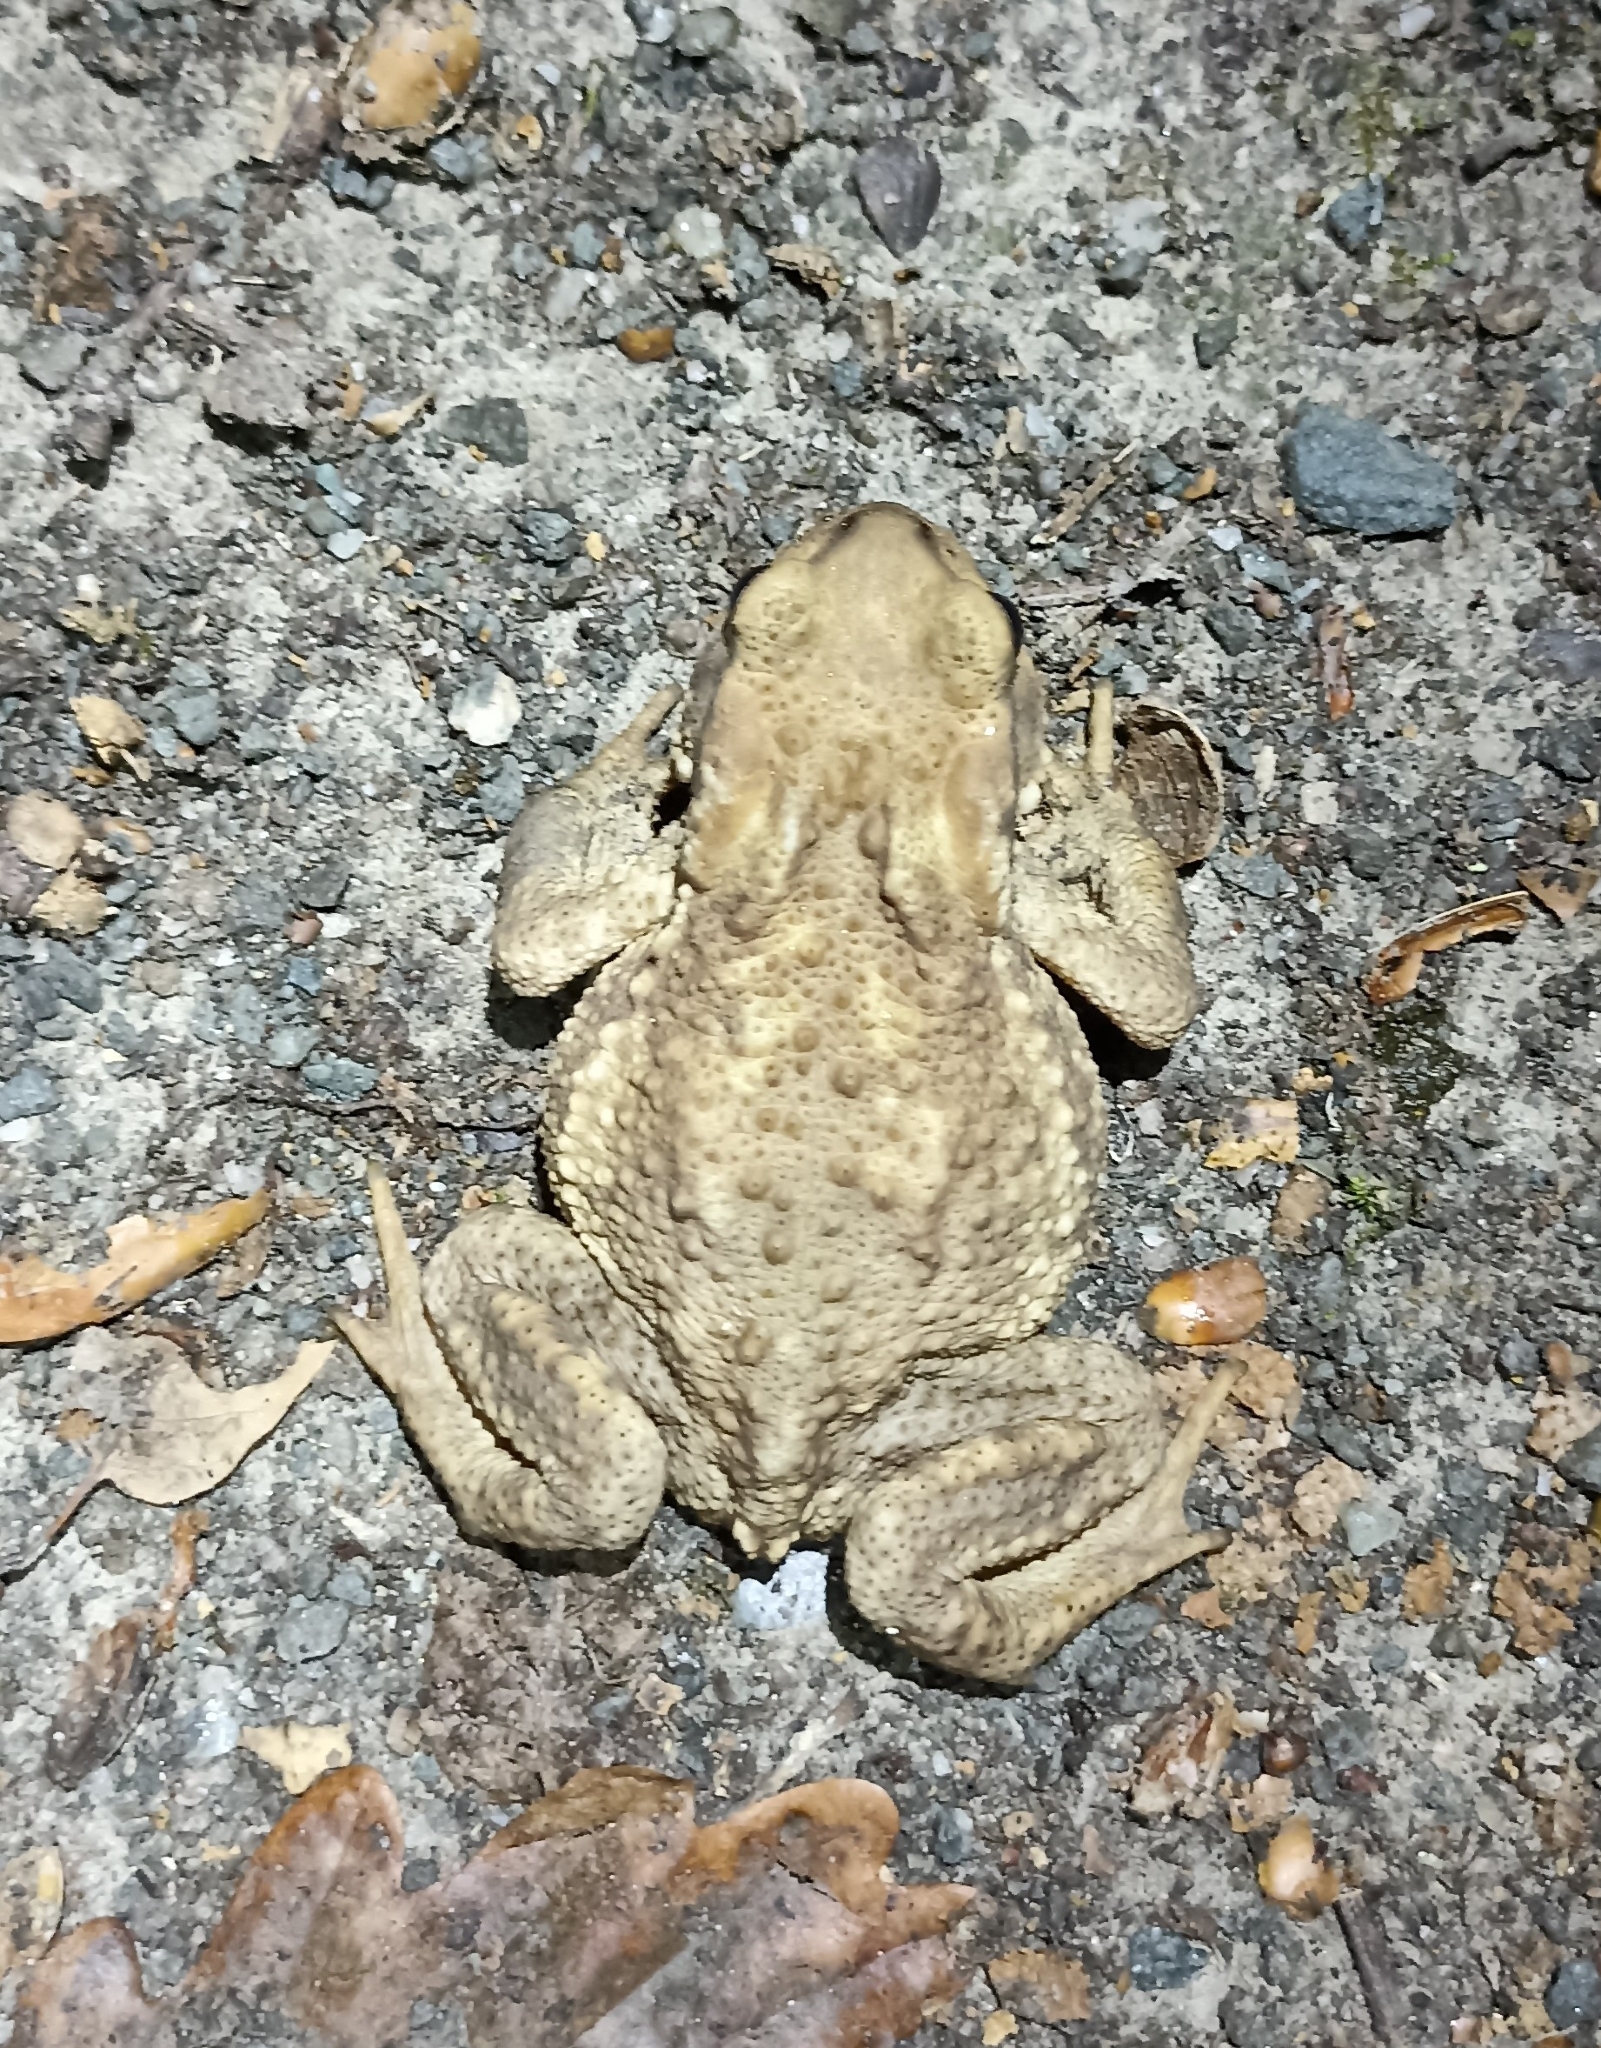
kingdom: Animalia
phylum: Chordata
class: Amphibia
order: Anura
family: Bufonidae
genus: Bufo
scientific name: Bufo spinosus
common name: Western common toad
